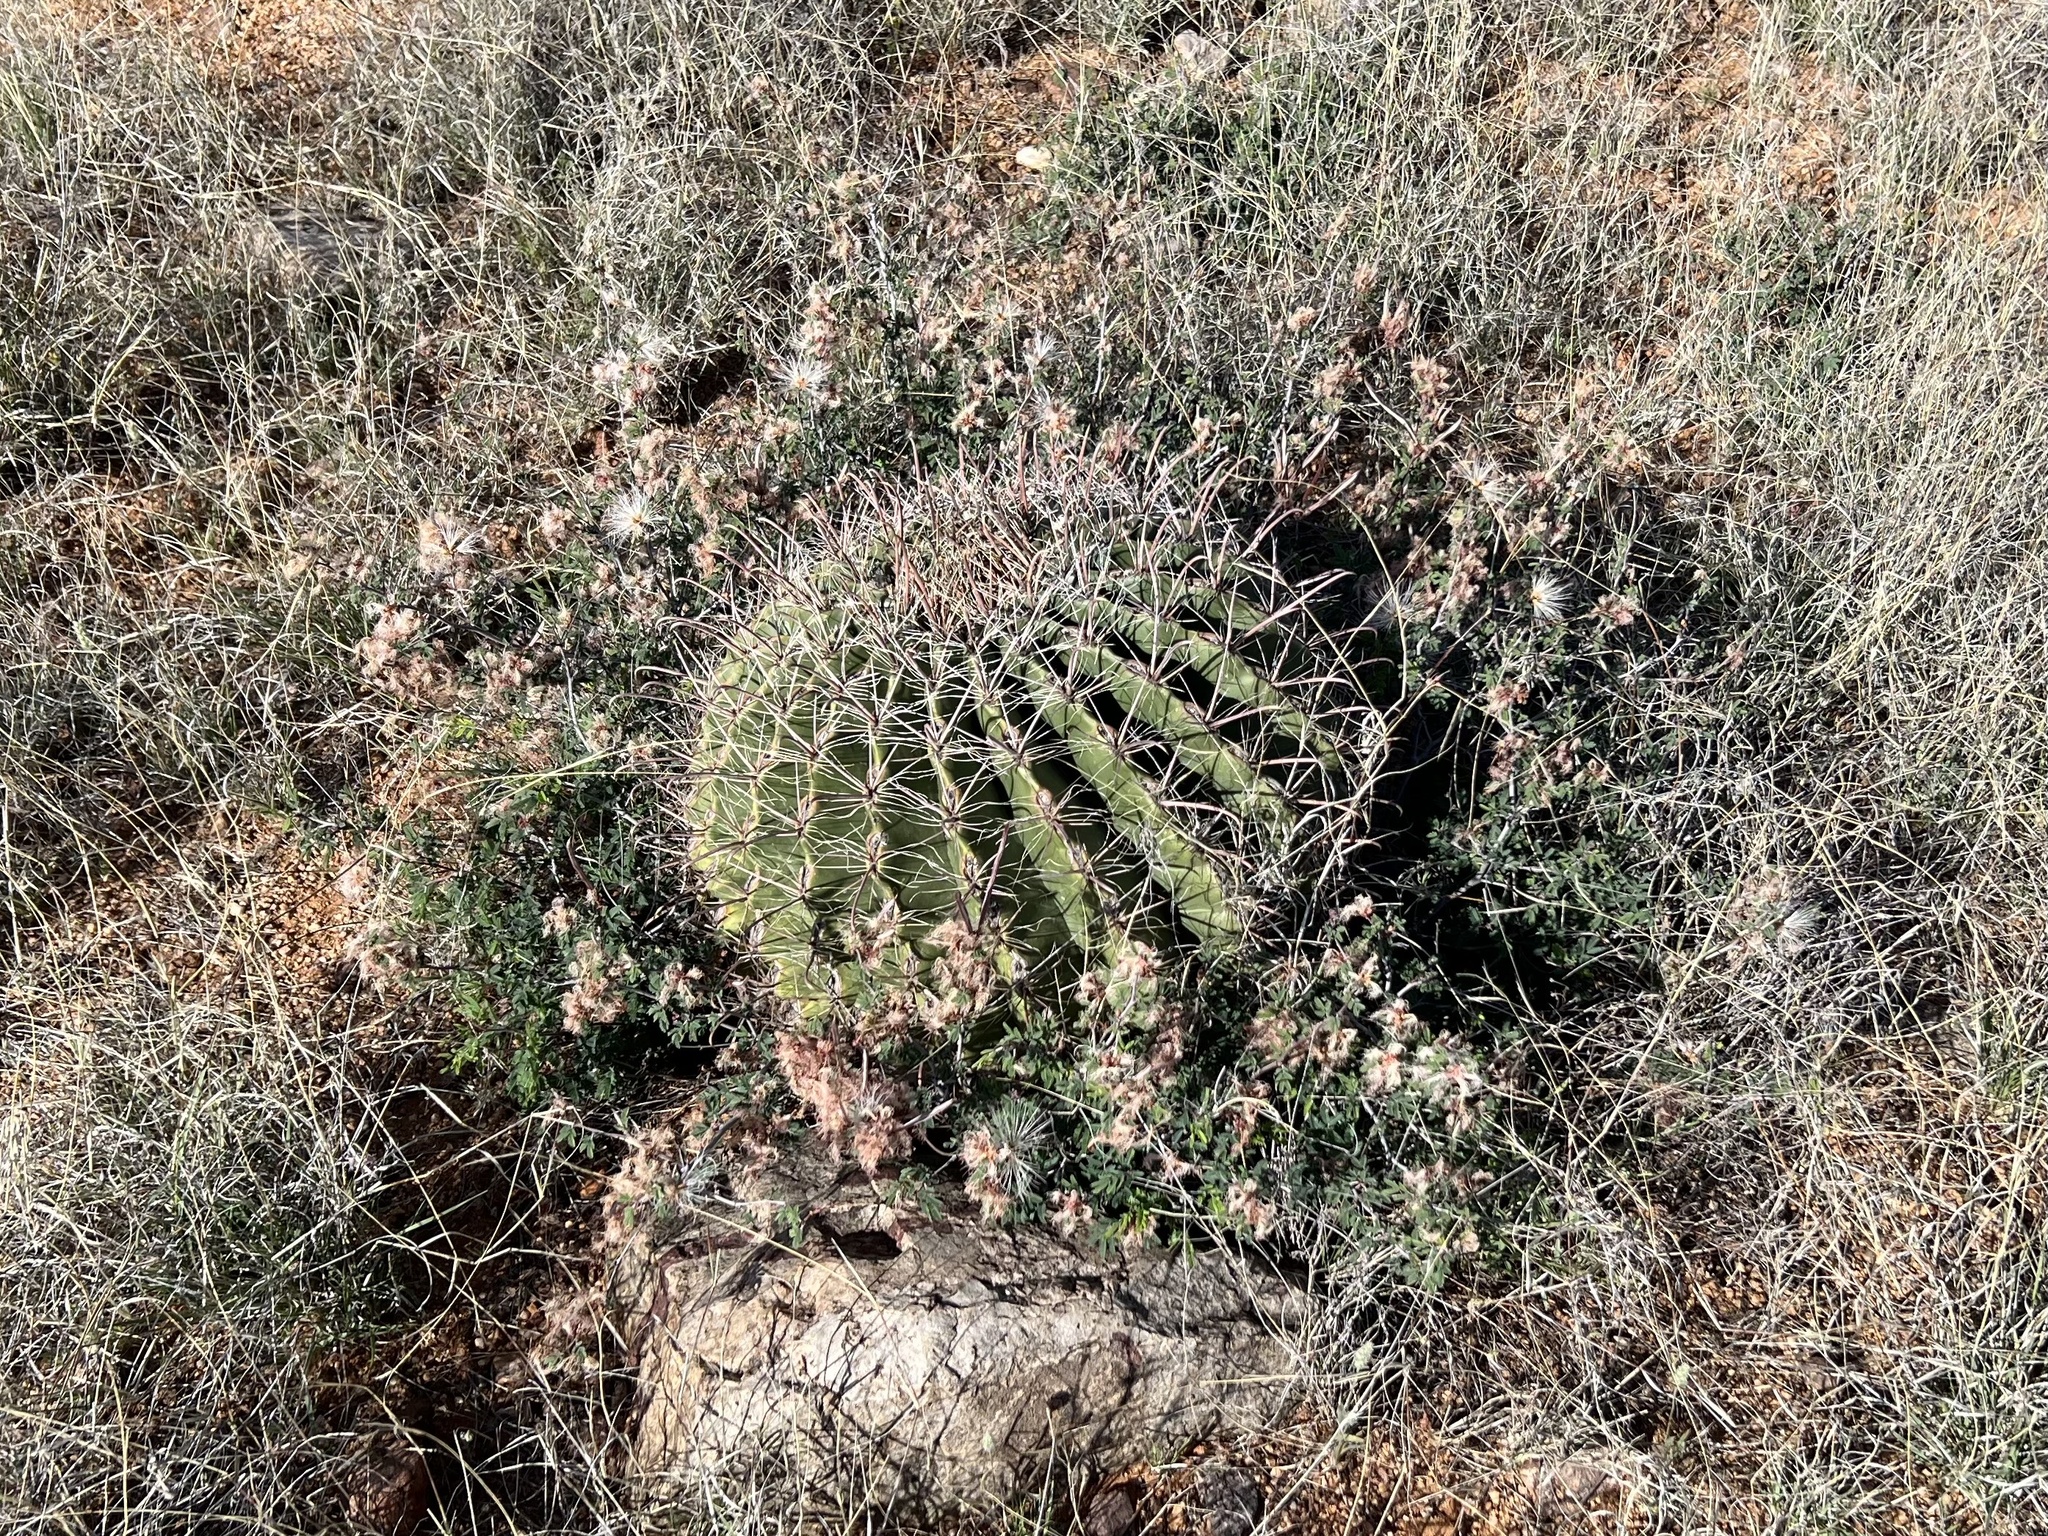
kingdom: Plantae
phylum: Tracheophyta
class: Magnoliopsida
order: Caryophyllales
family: Cactaceae
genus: Ferocactus
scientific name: Ferocactus wislizeni
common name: Candy barrel cactus
